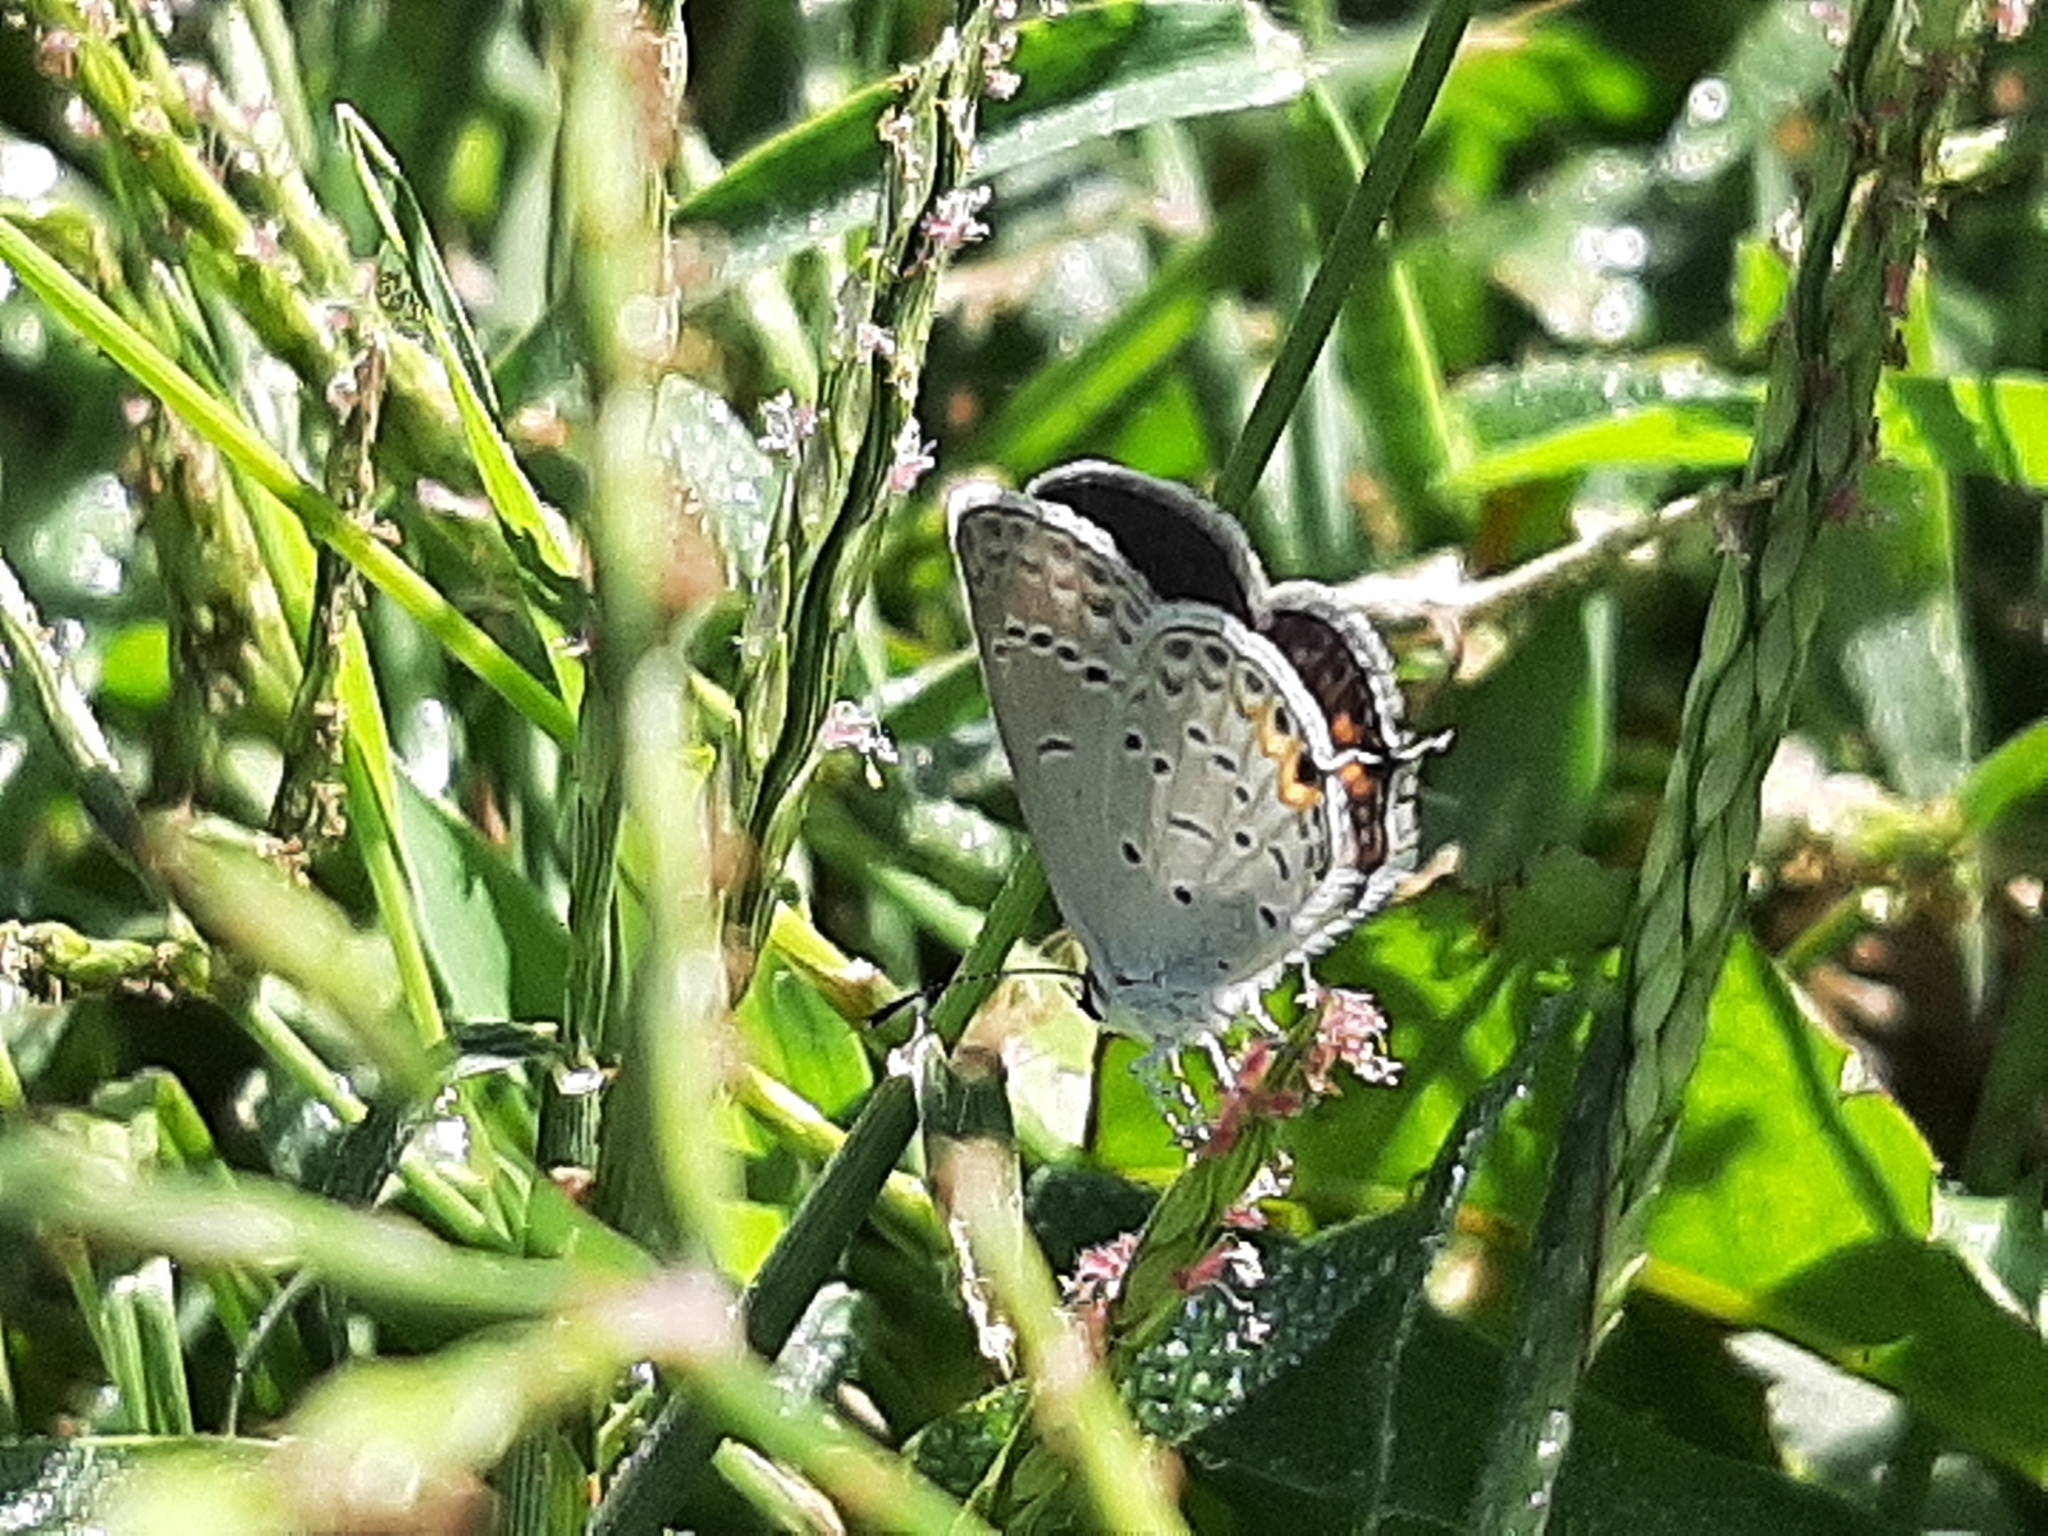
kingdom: Animalia
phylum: Arthropoda
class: Insecta
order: Lepidoptera
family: Lycaenidae
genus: Elkalyce
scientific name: Elkalyce comyntas
